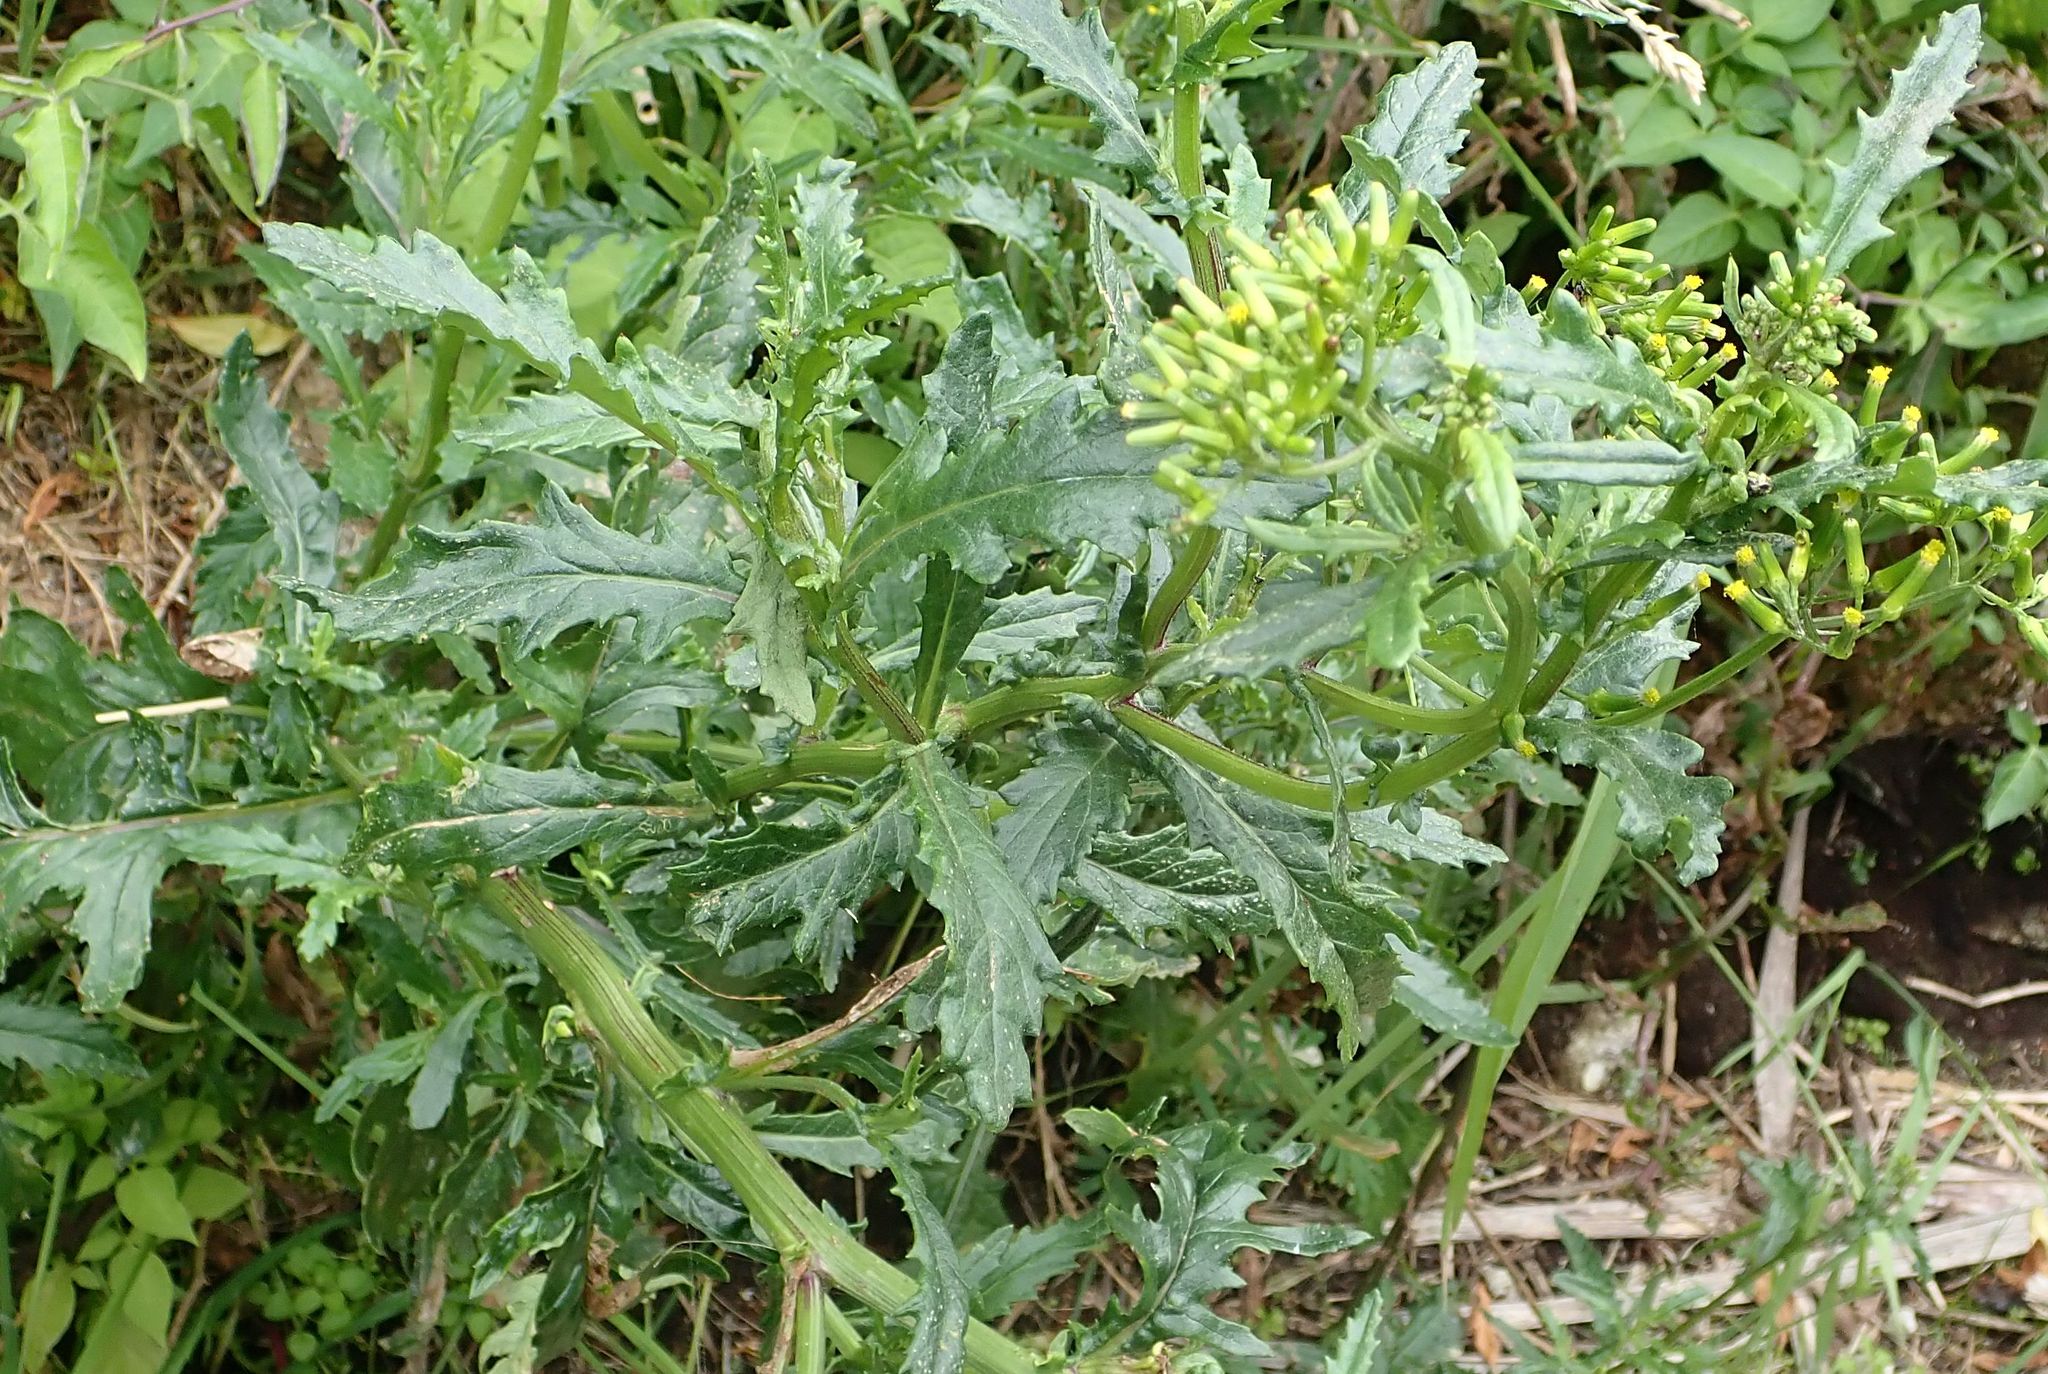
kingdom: Plantae
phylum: Tracheophyta
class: Magnoliopsida
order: Asterales
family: Asteraceae
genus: Senecio
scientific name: Senecio biserratus
